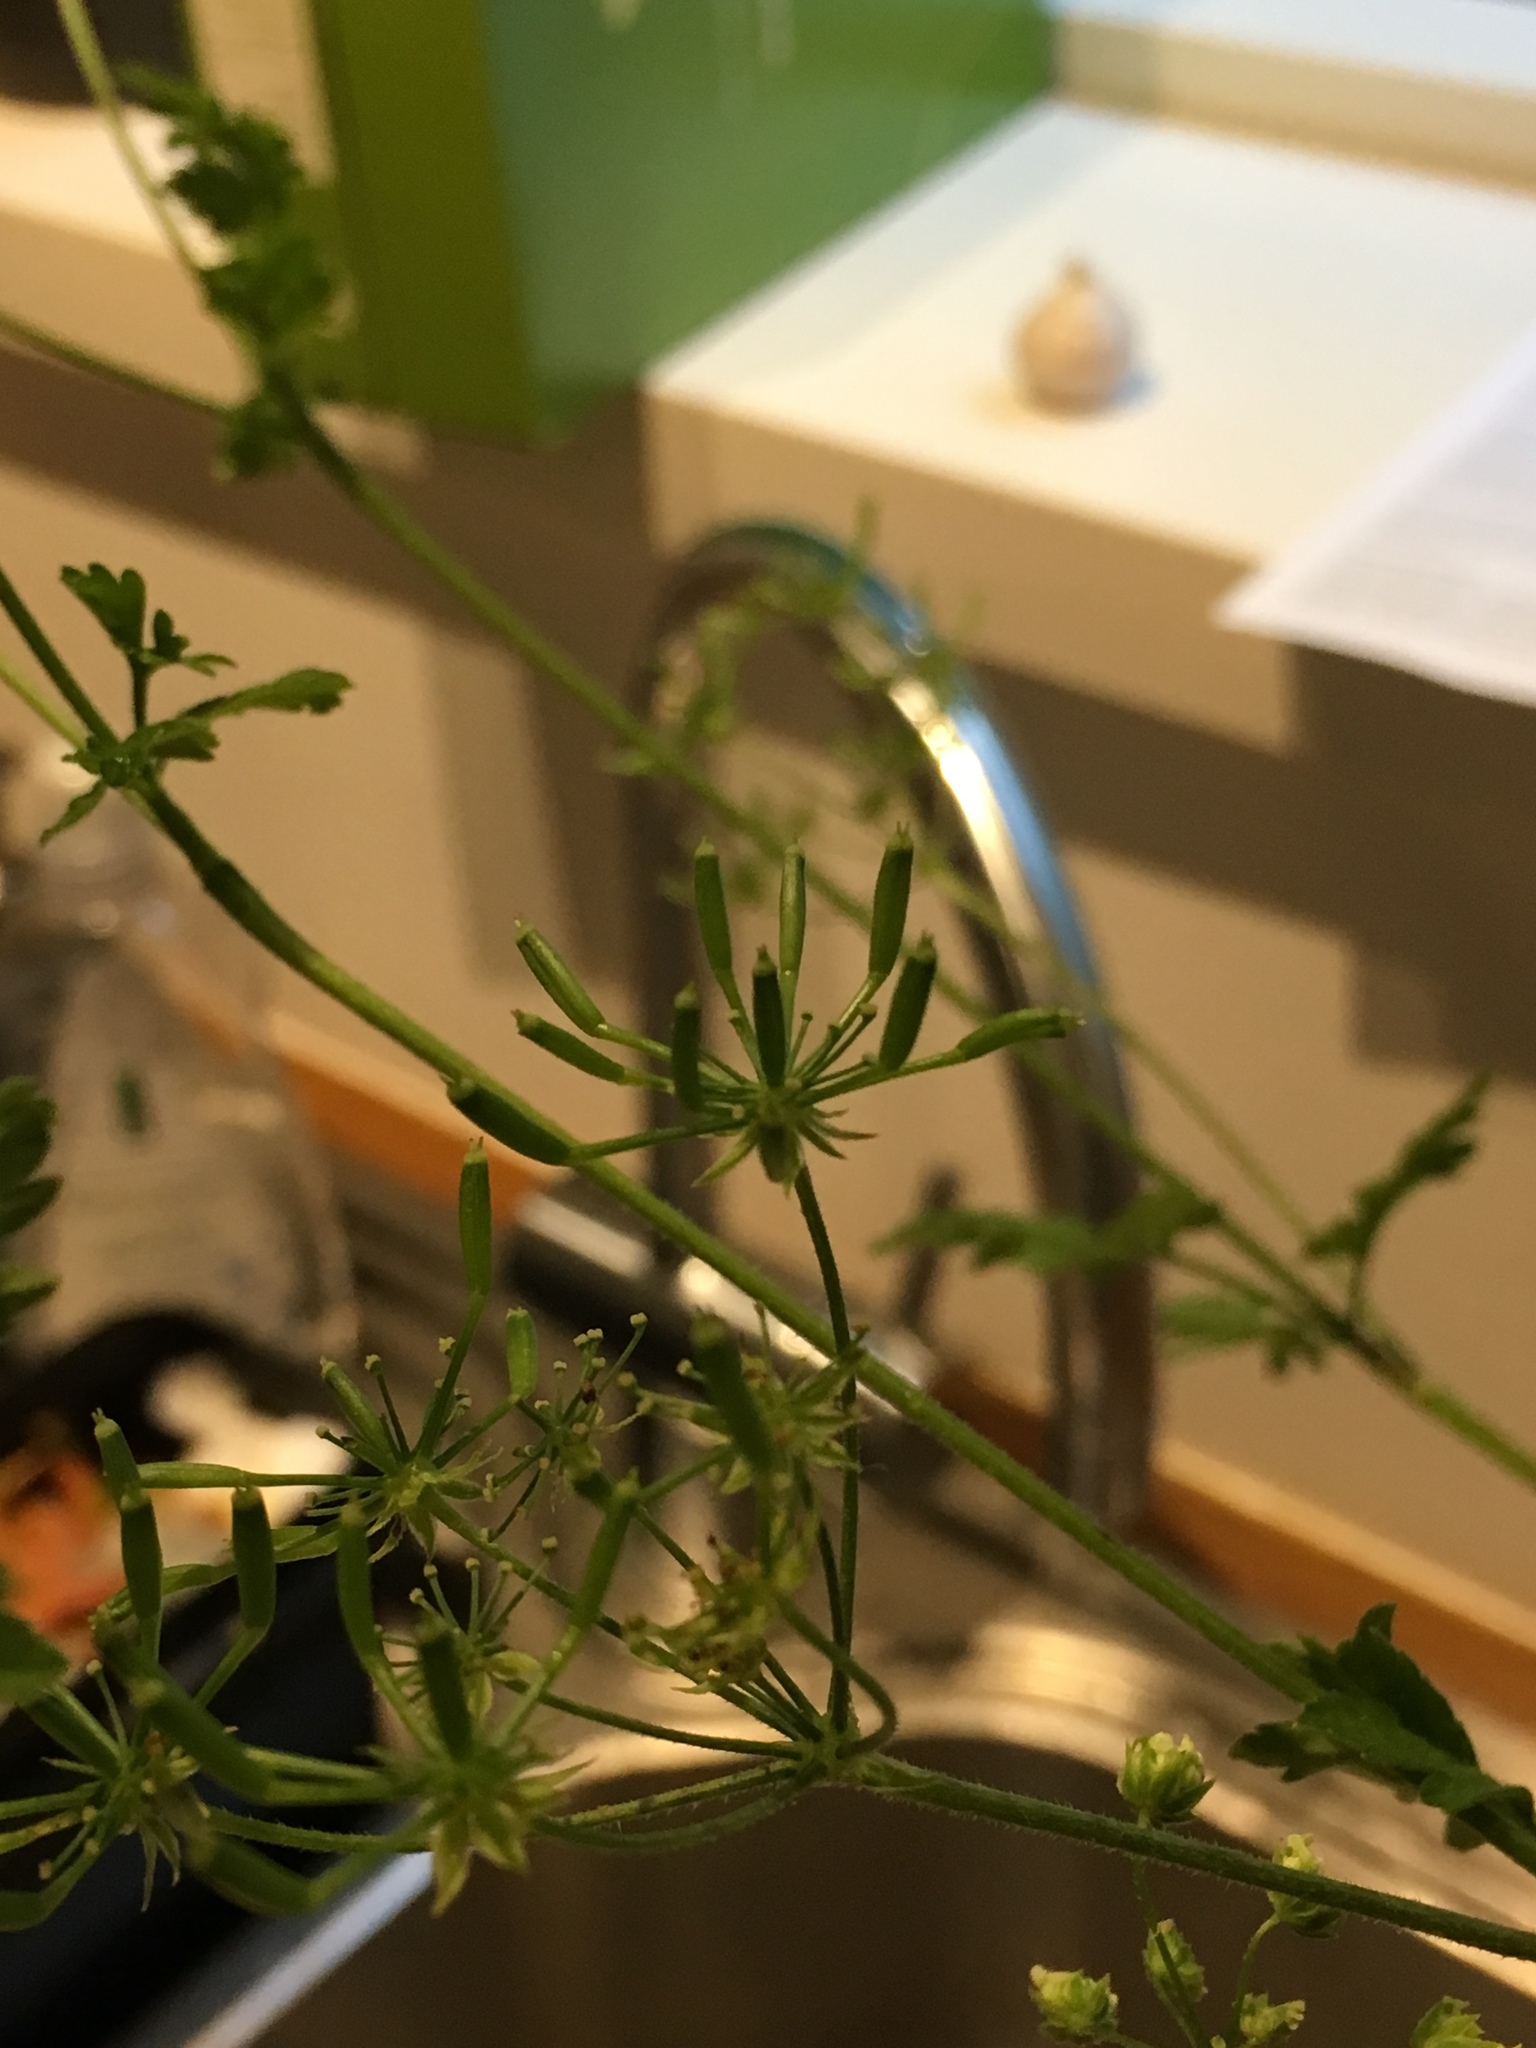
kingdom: Plantae
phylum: Tracheophyta
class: Magnoliopsida
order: Apiales
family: Apiaceae
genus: Chaerophyllum
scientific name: Chaerophyllum temulum
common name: Rough chervil
